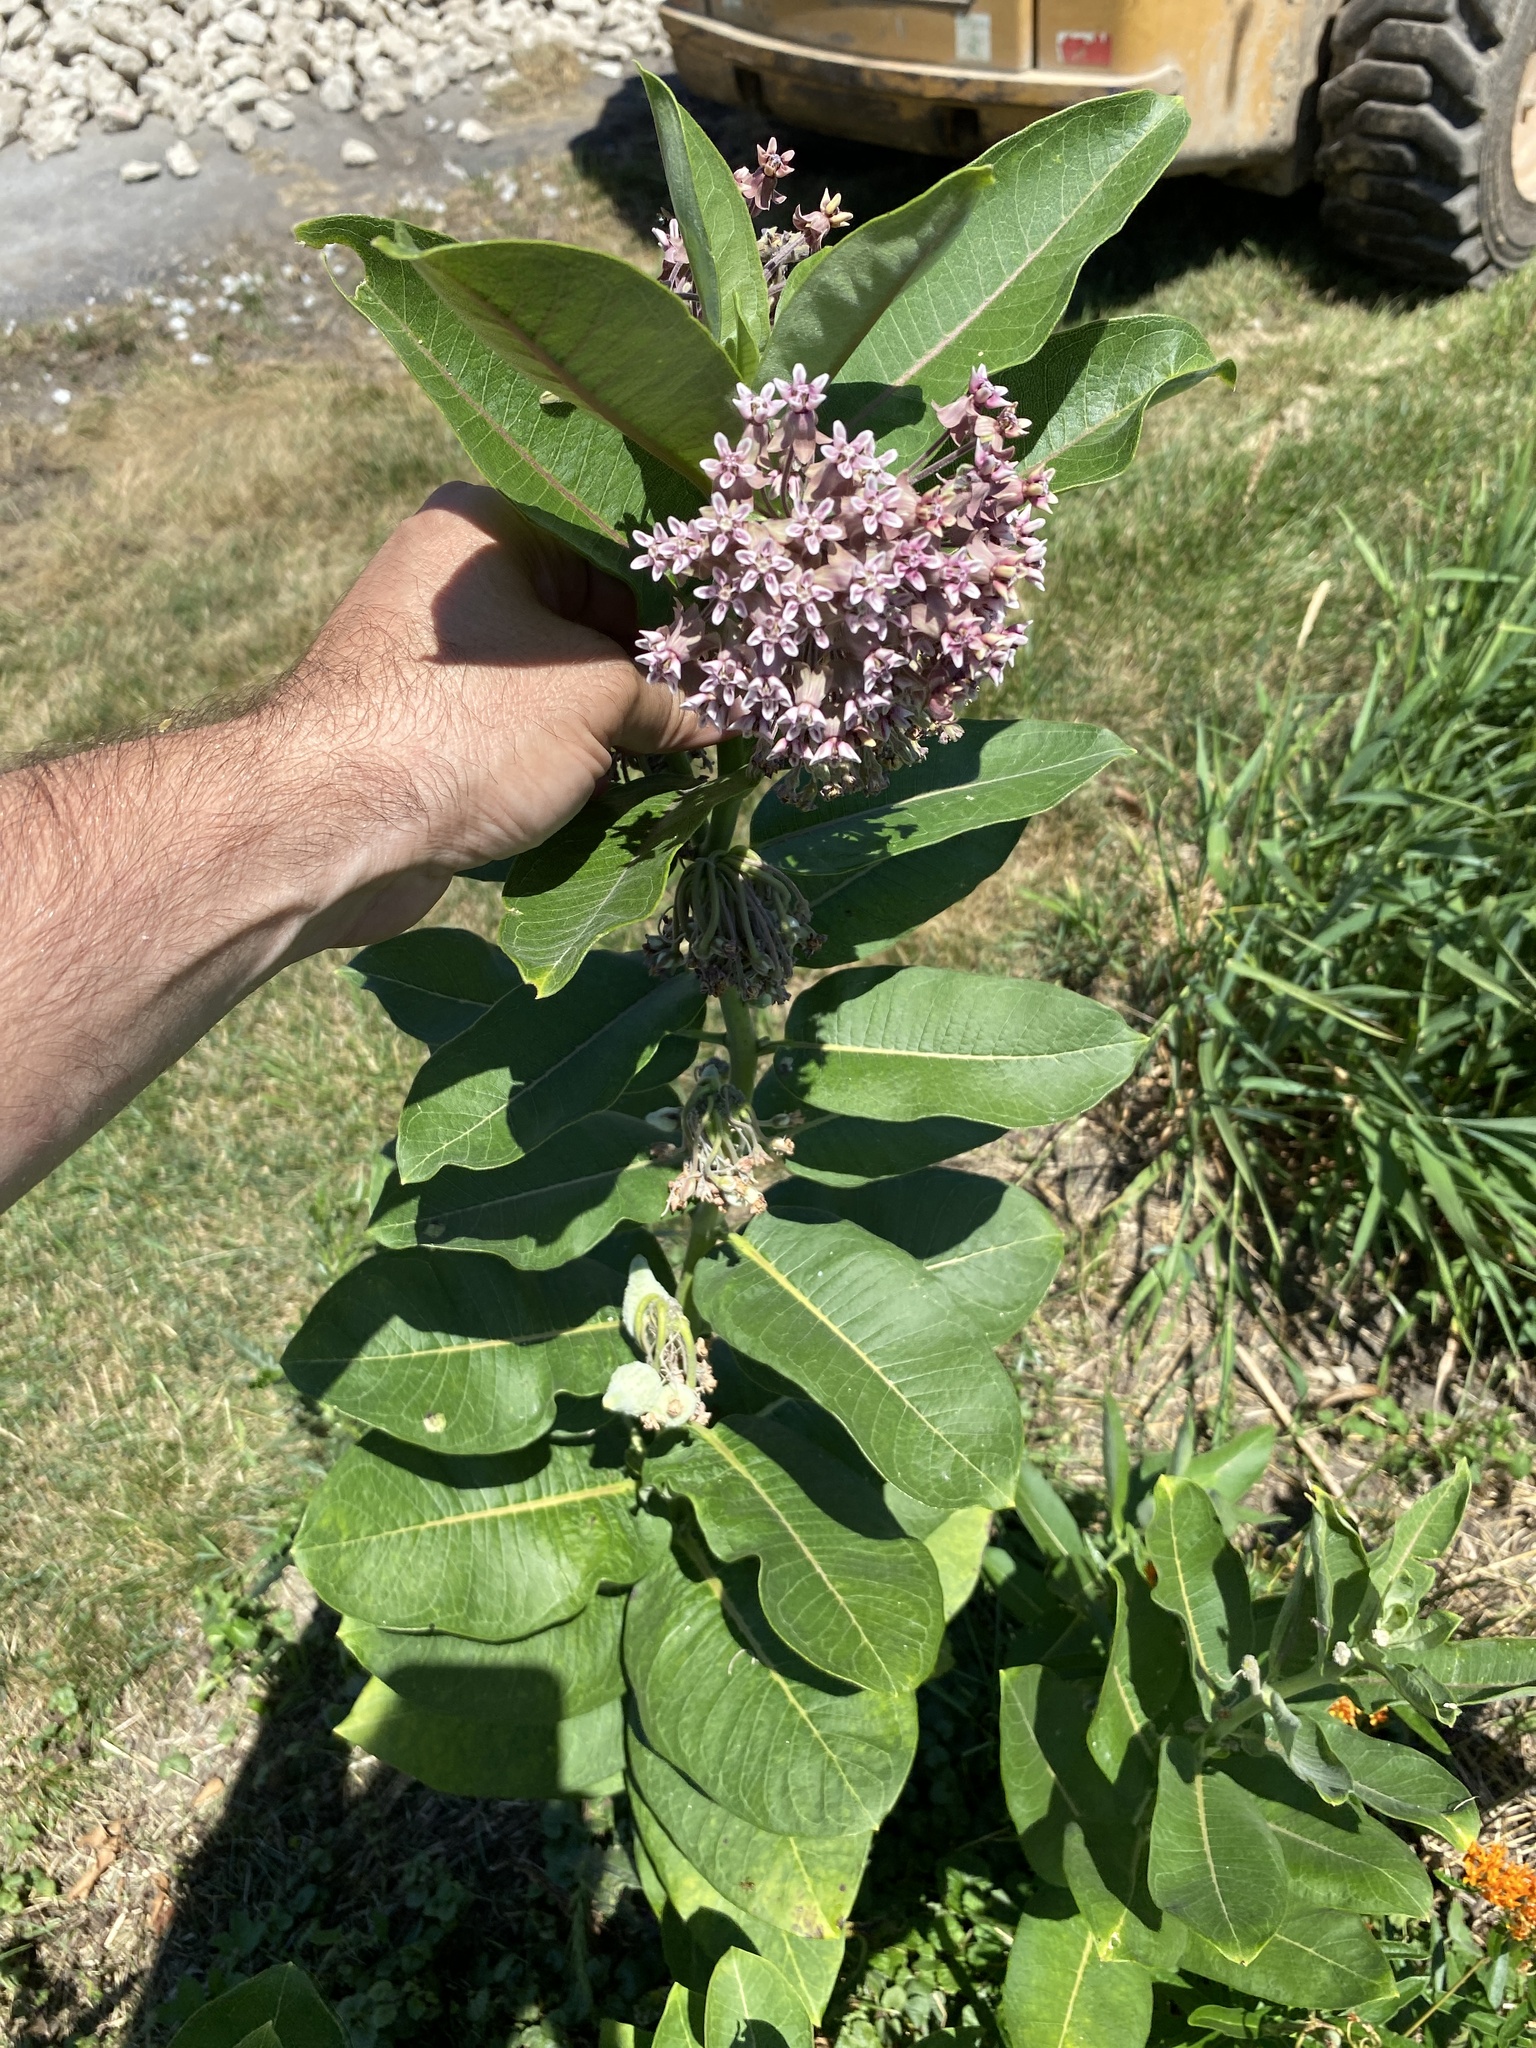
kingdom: Plantae
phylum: Tracheophyta
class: Magnoliopsida
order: Gentianales
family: Apocynaceae
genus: Asclepias
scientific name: Asclepias syriaca
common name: Common milkweed
